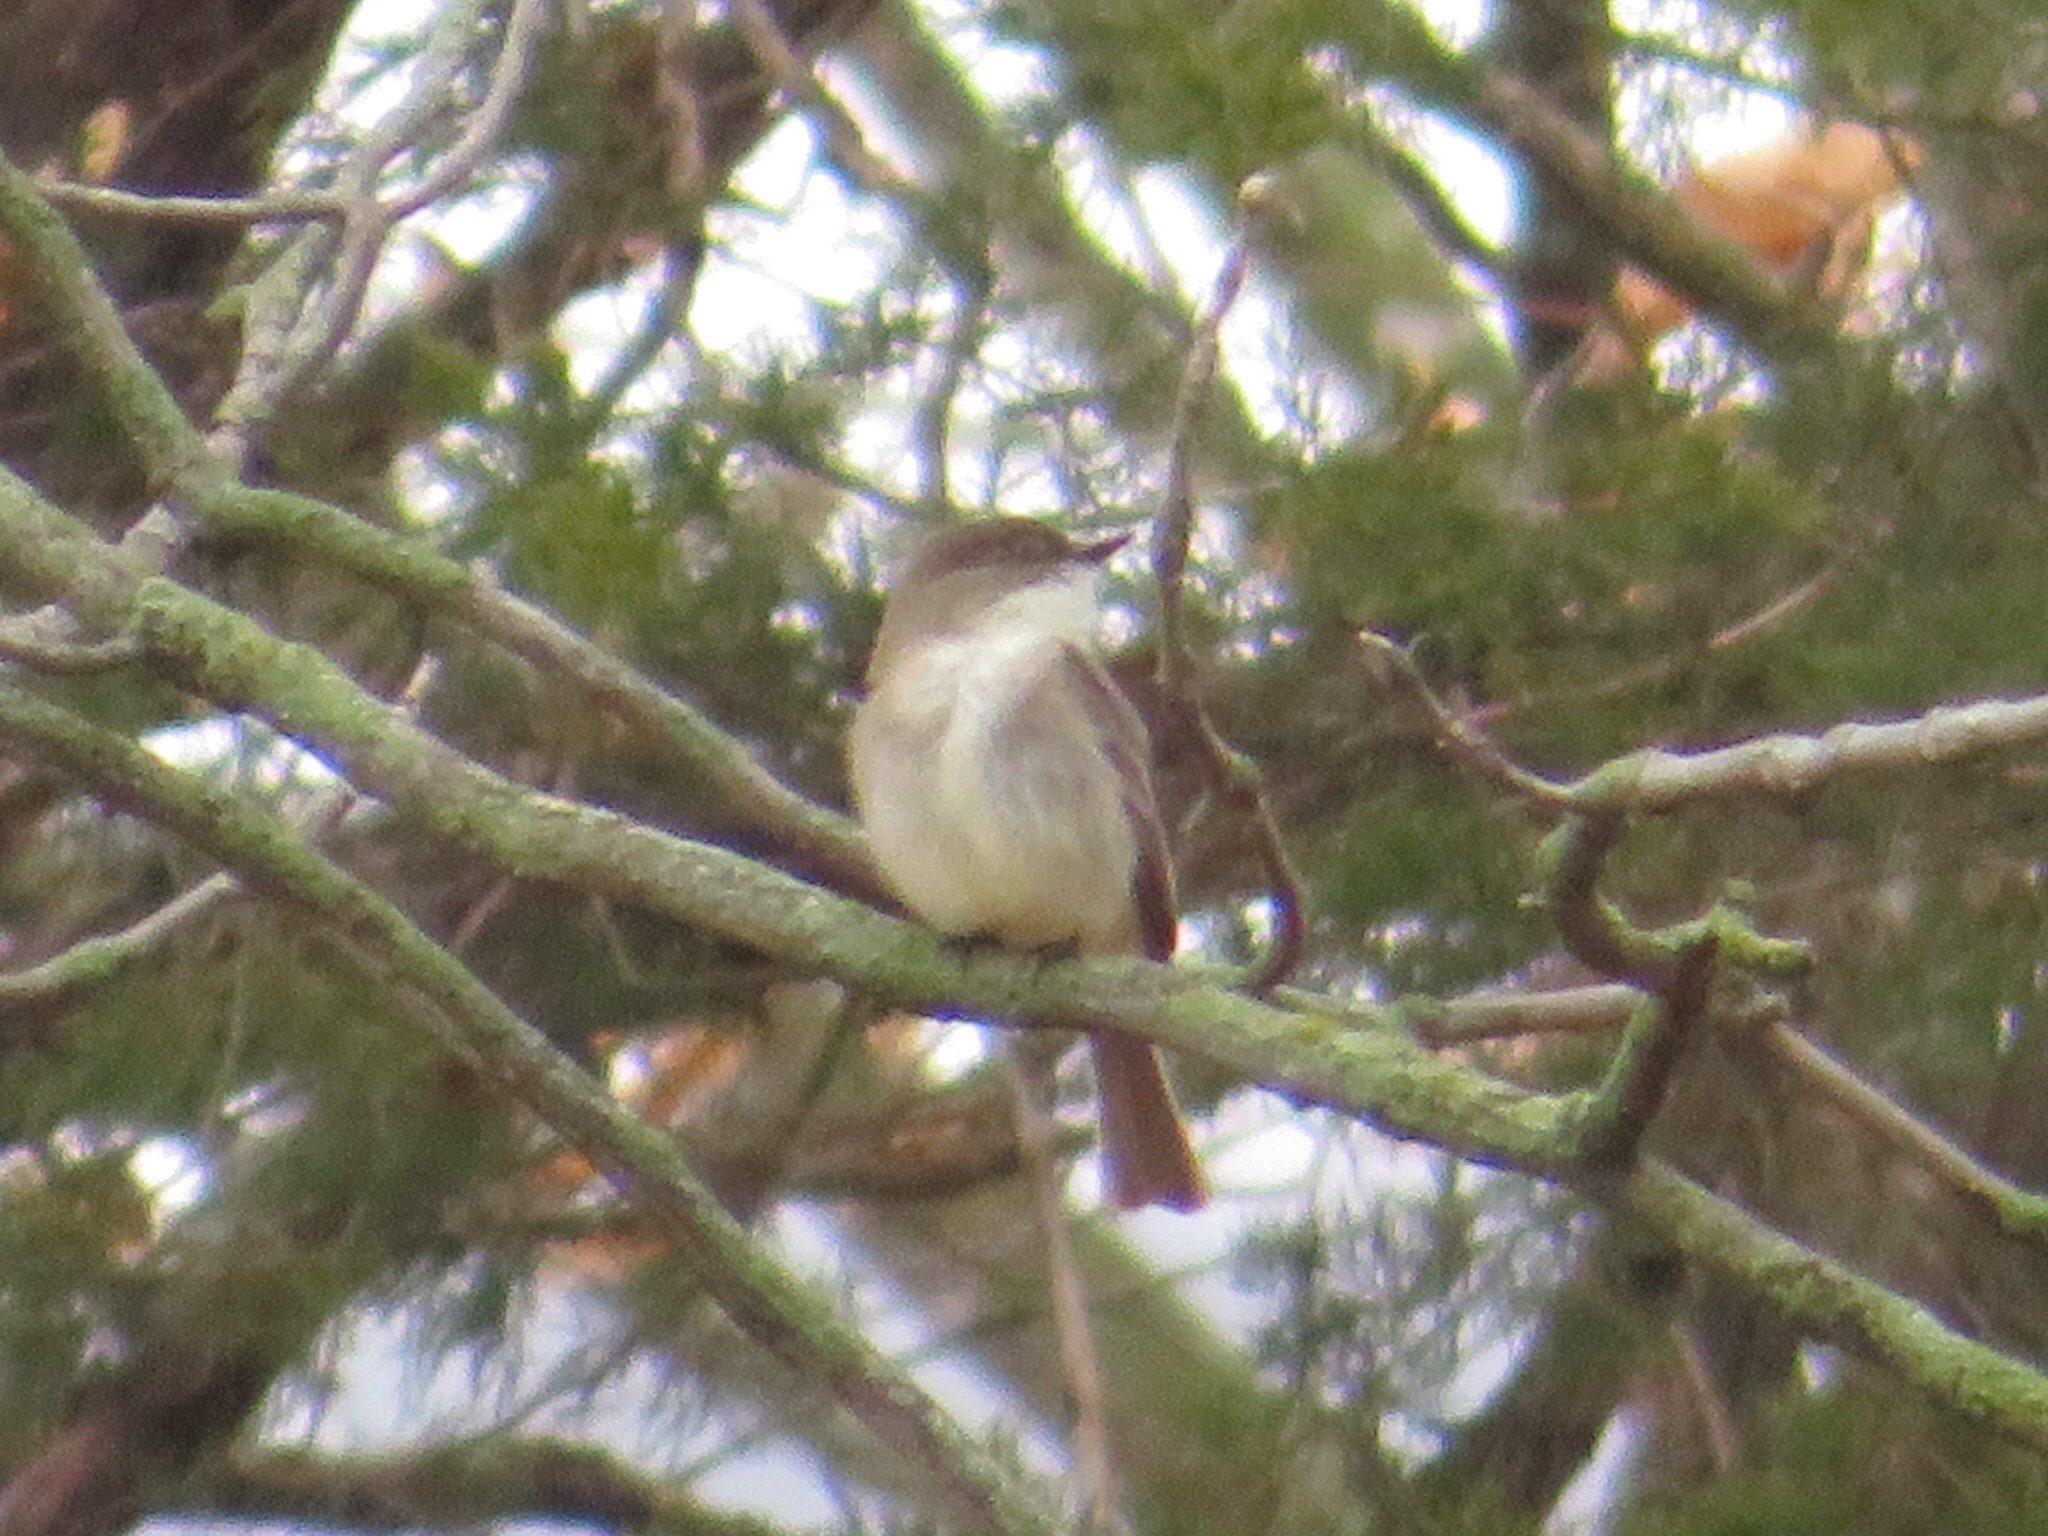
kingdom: Animalia
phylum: Chordata
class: Aves
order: Passeriformes
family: Tyrannidae
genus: Sayornis
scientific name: Sayornis phoebe
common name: Eastern phoebe
